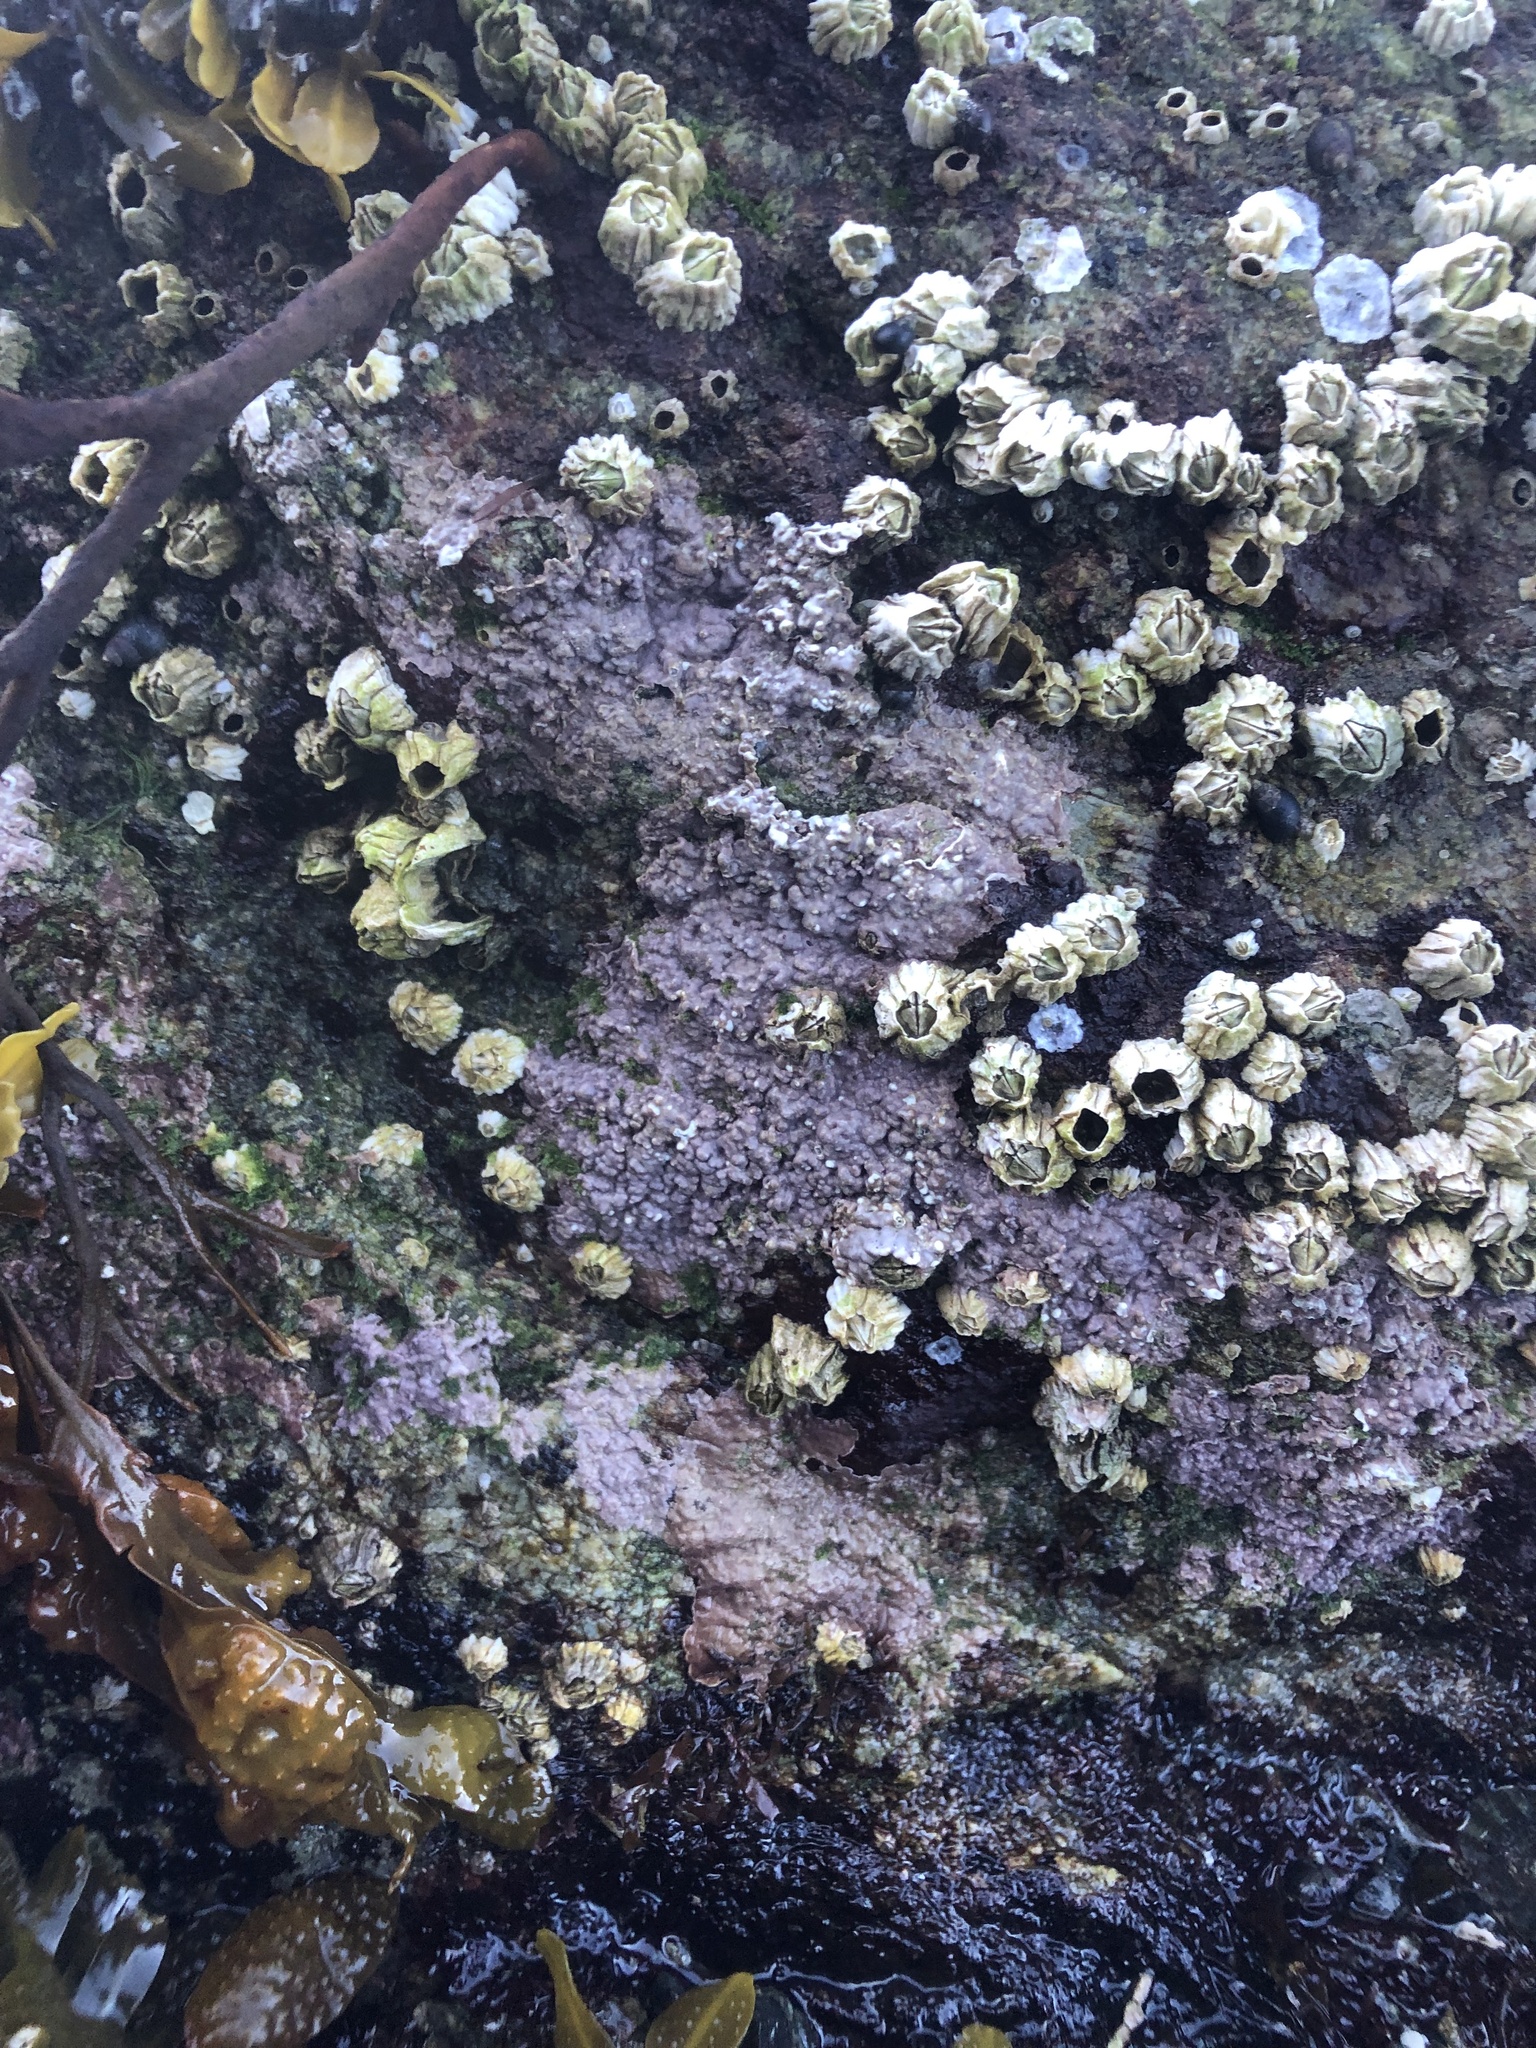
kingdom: Plantae
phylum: Rhodophyta
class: Florideophyceae
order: Corallinales
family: Corallinaceae
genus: Chamberlainium
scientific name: Chamberlainium tumidum
